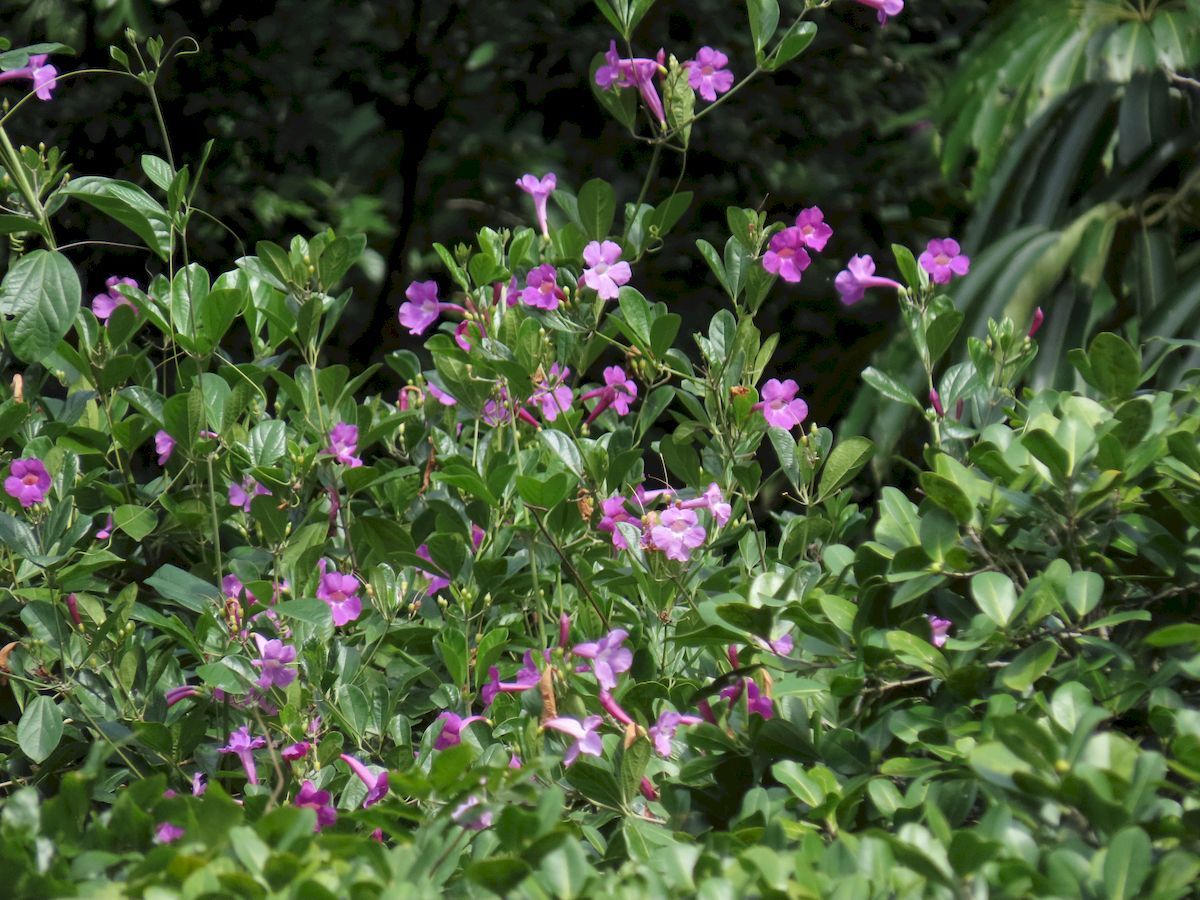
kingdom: Plantae
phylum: Tracheophyta
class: Magnoliopsida
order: Lamiales
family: Bignoniaceae
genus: Bignonia
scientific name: Bignonia magnifica
